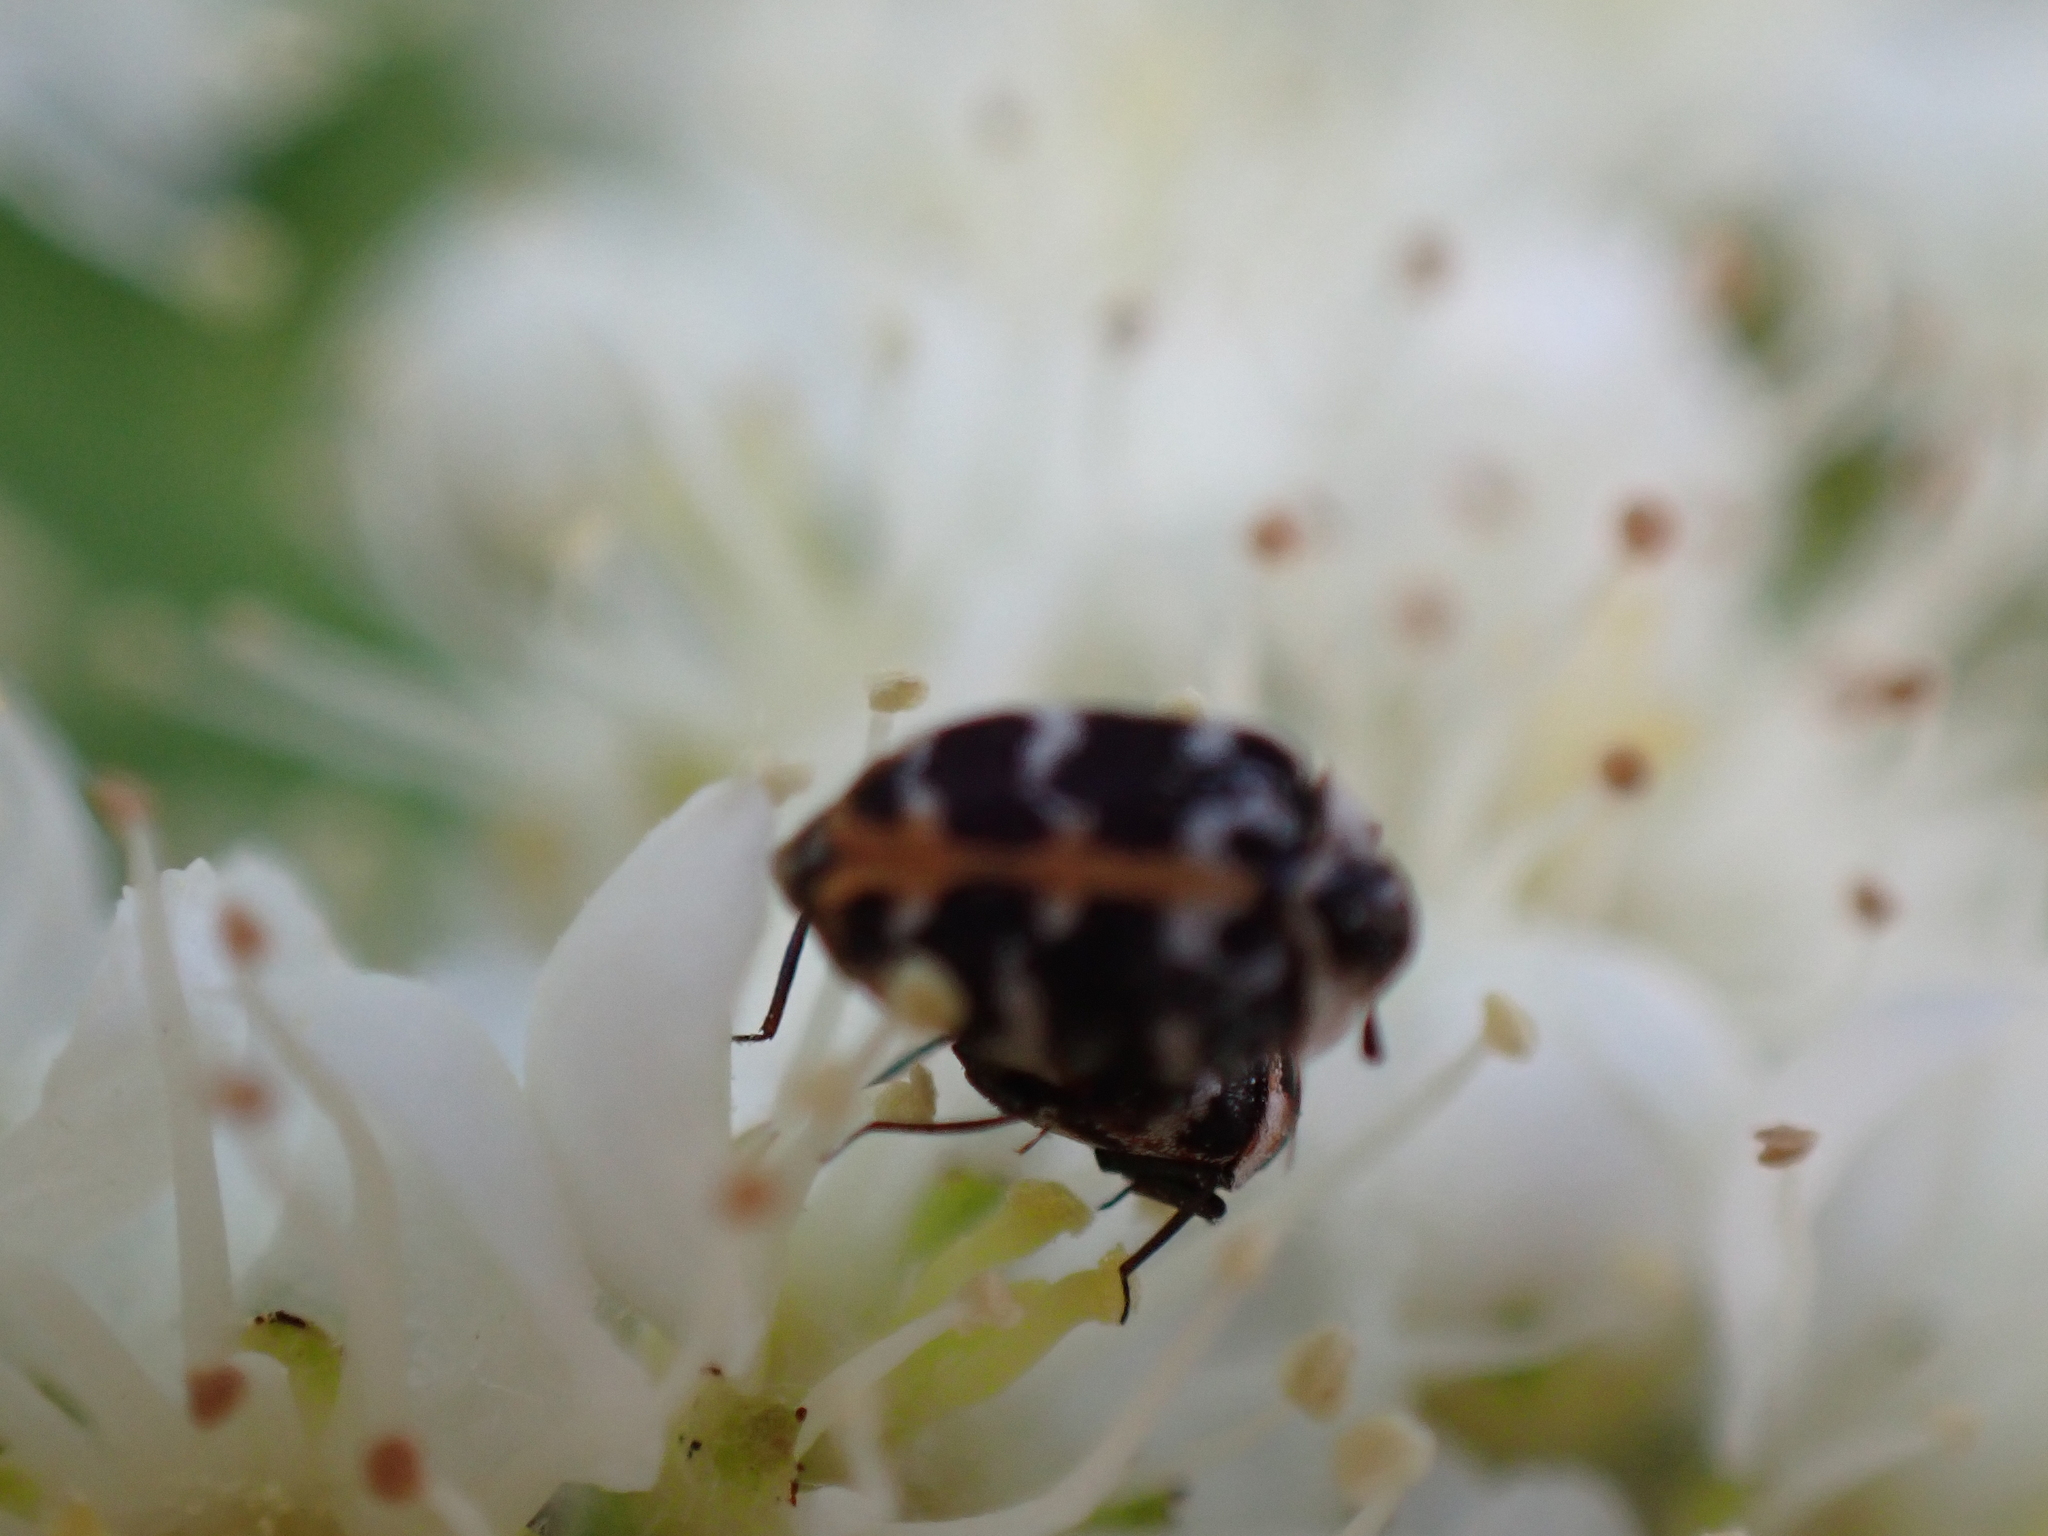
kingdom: Animalia
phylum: Arthropoda
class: Insecta
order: Coleoptera
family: Dermestidae
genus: Anthrenus
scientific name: Anthrenus scrophulariae
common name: Buffalo carpet beetle
